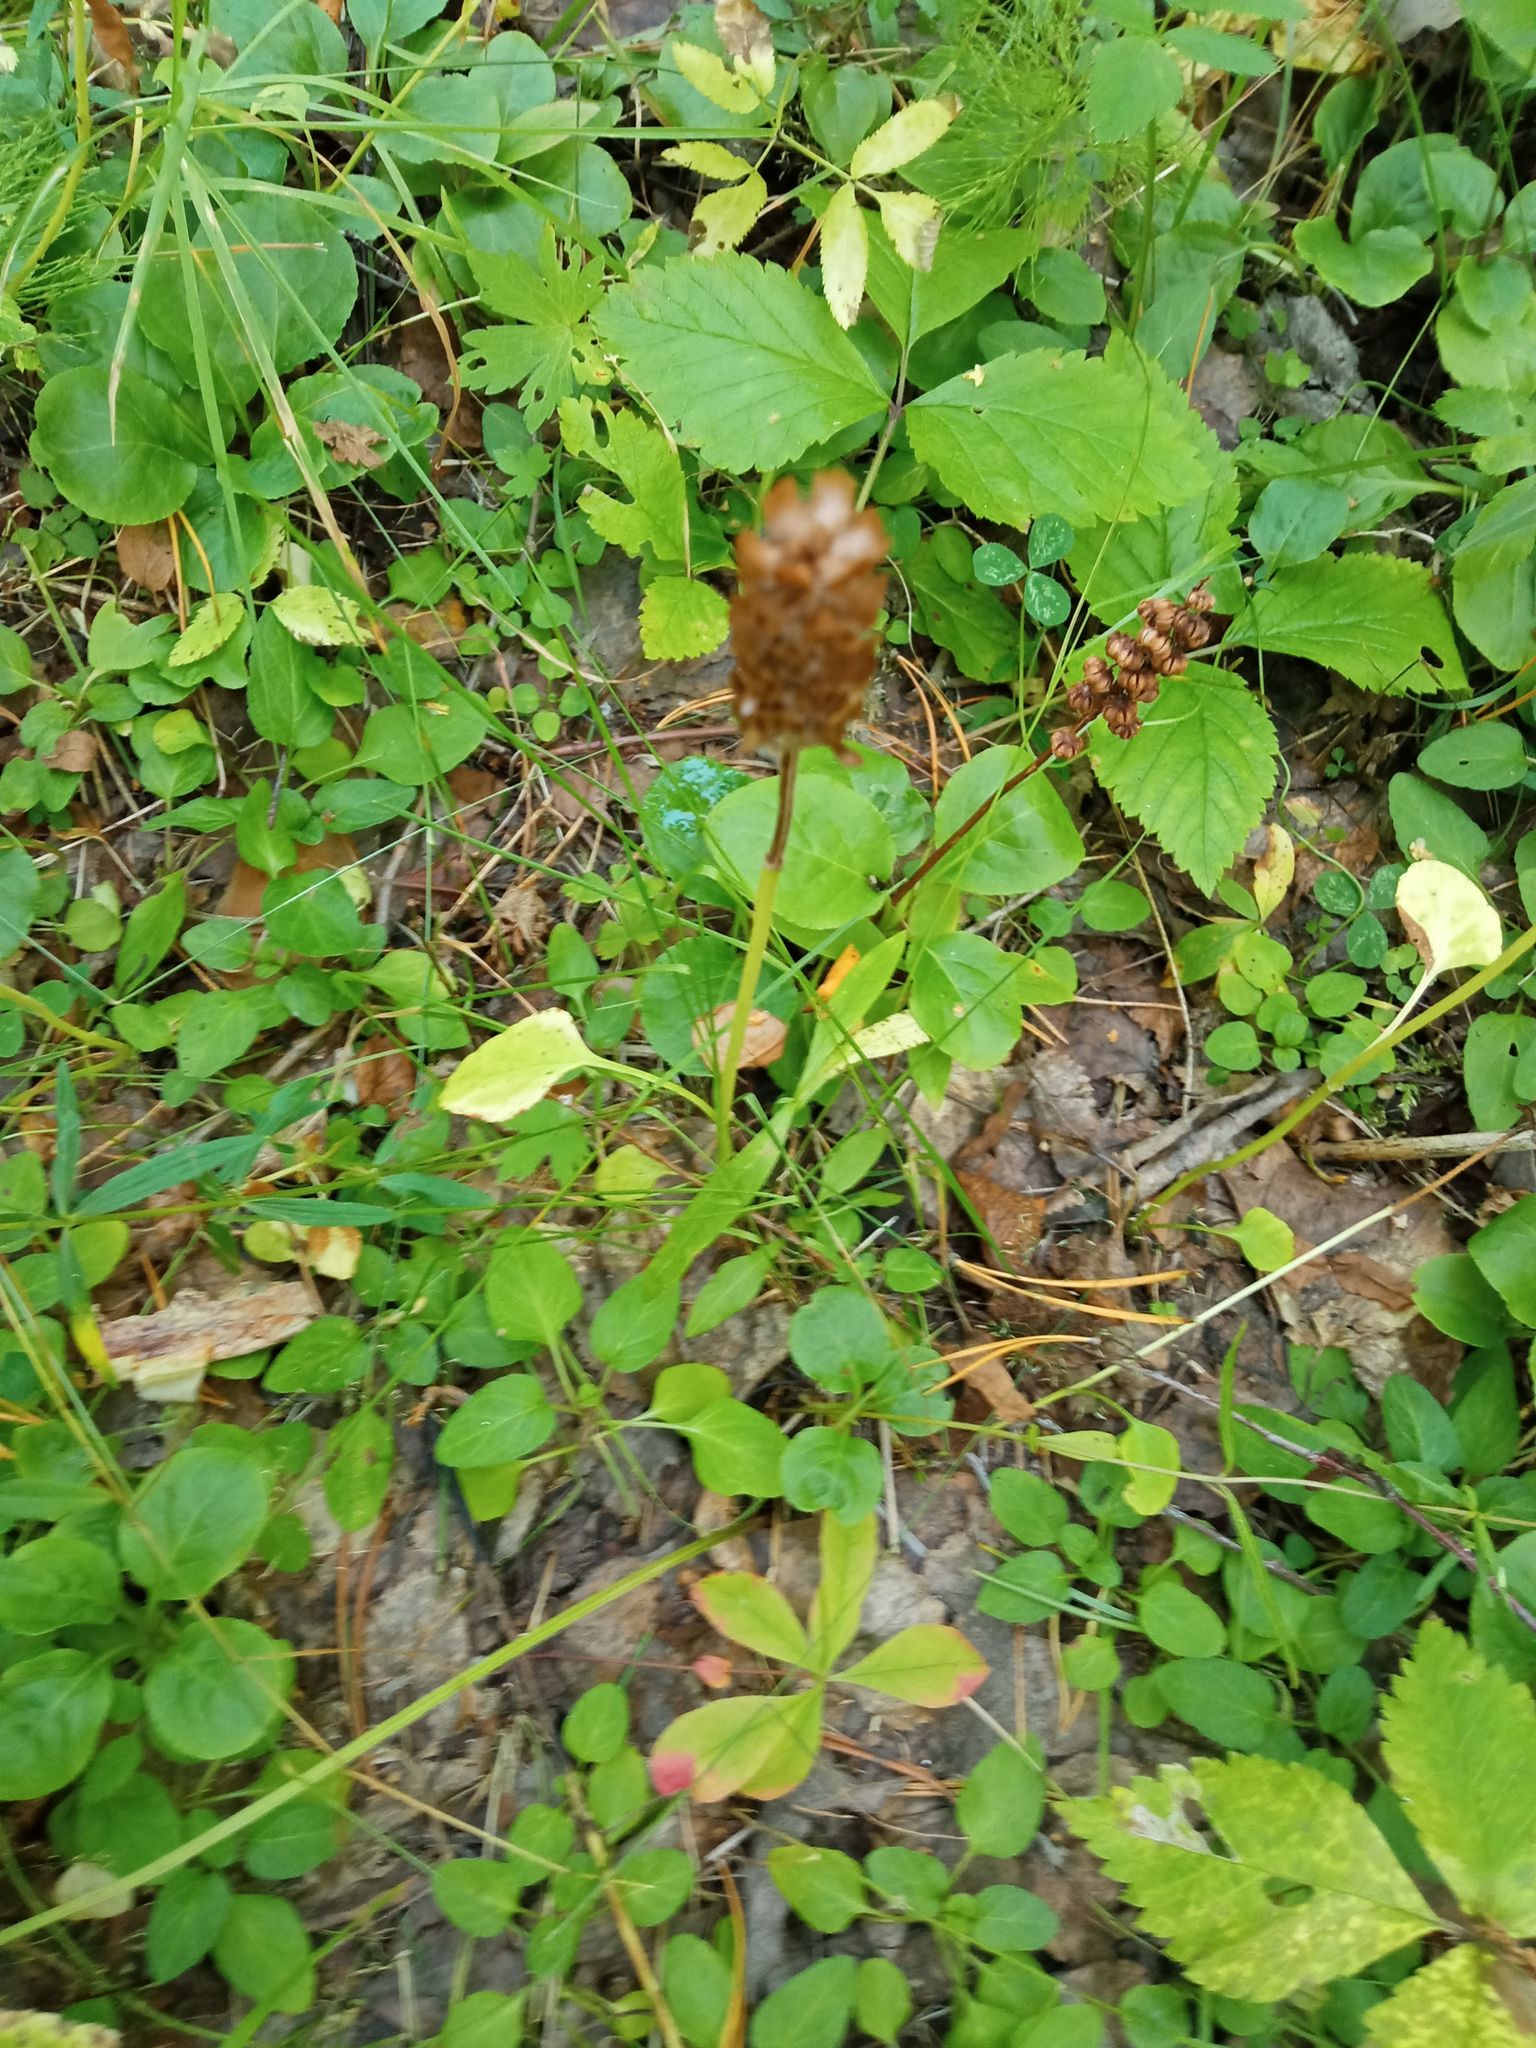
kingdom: Plantae
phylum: Tracheophyta
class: Magnoliopsida
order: Lamiales
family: Lamiaceae
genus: Prunella
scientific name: Prunella vulgaris
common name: Heal-all
